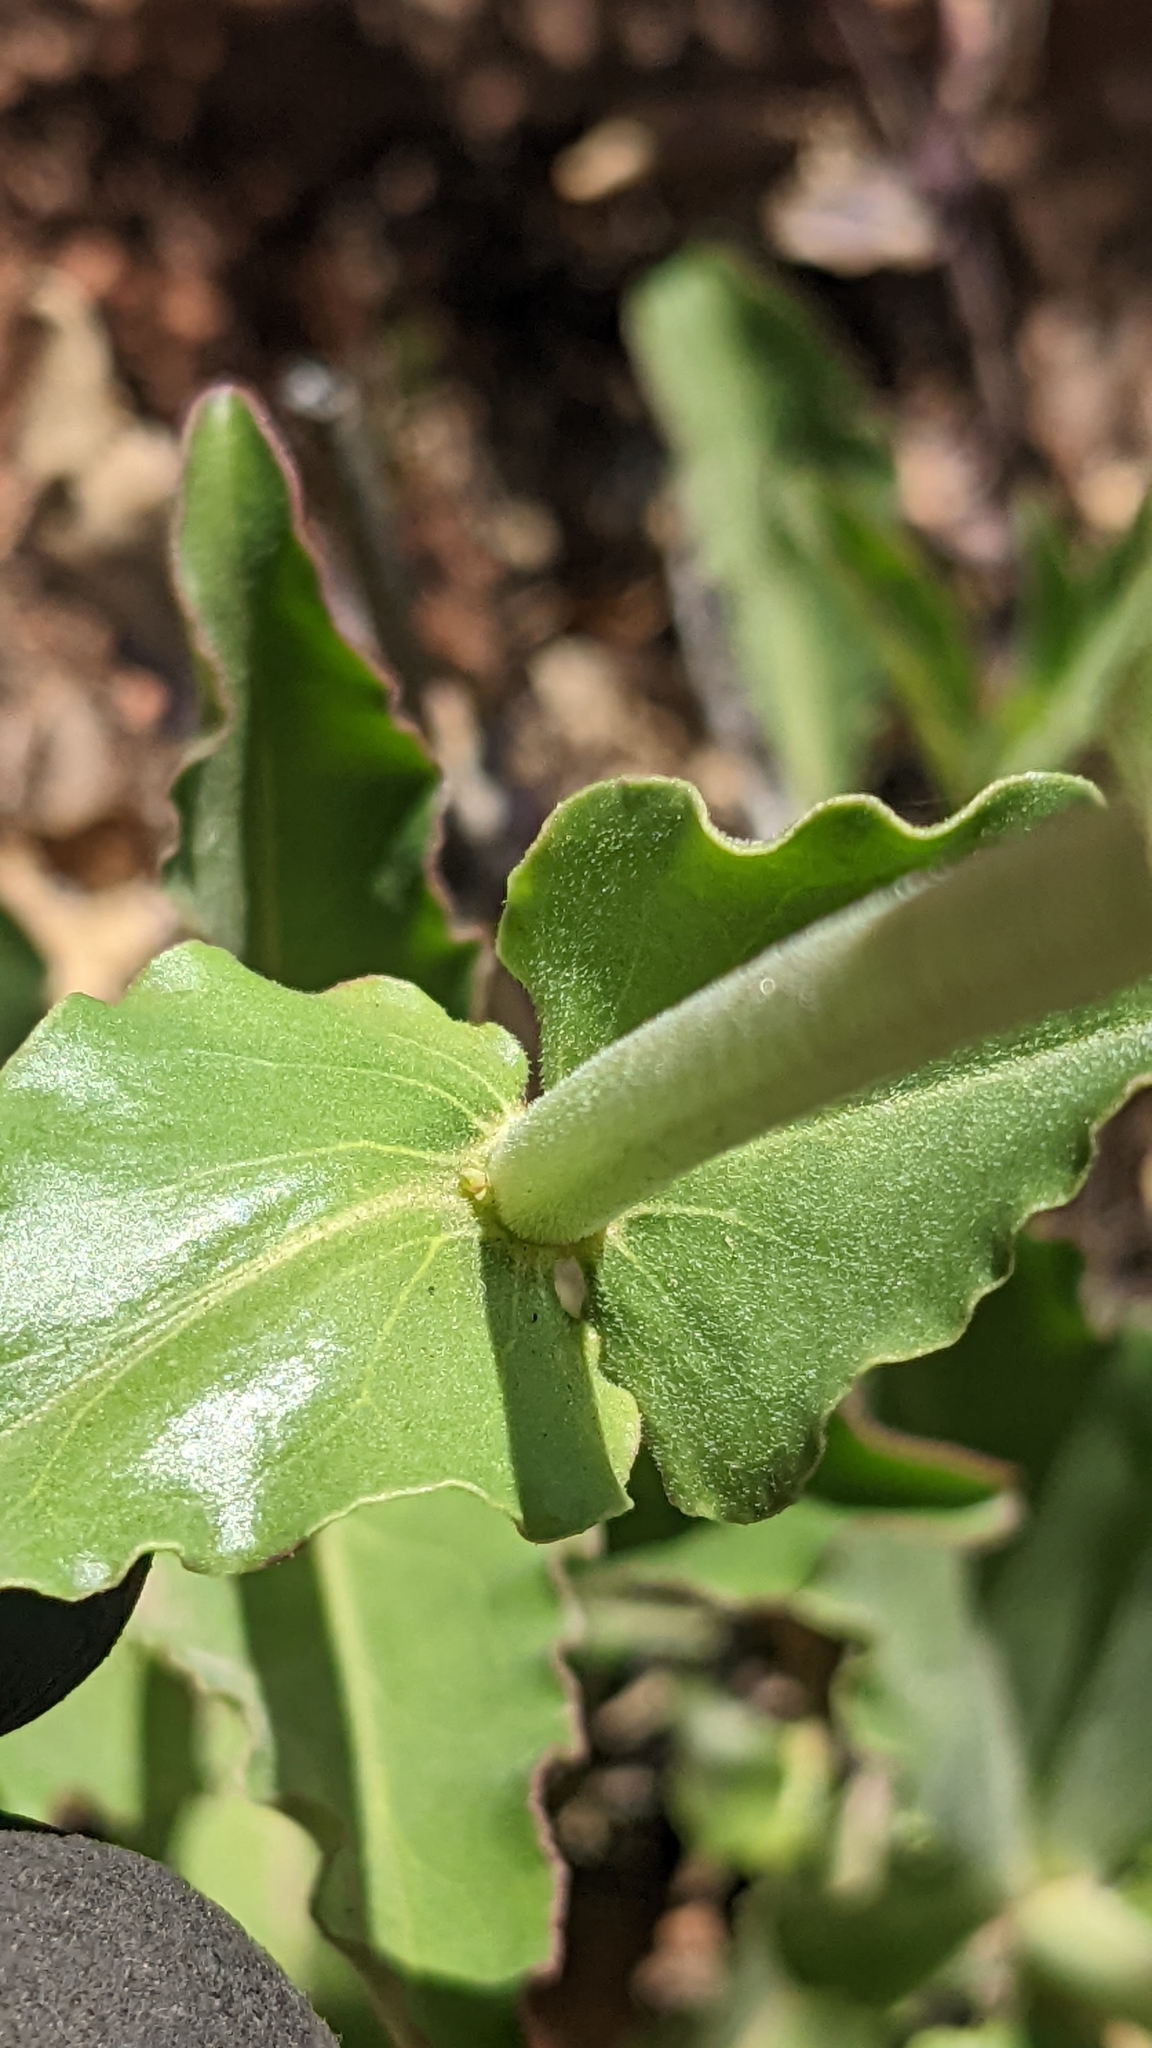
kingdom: Plantae
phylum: Tracheophyta
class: Magnoliopsida
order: Lamiales
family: Plantaginaceae
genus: Penstemon
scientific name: Penstemon eatonii
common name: Eaton's penstemon
